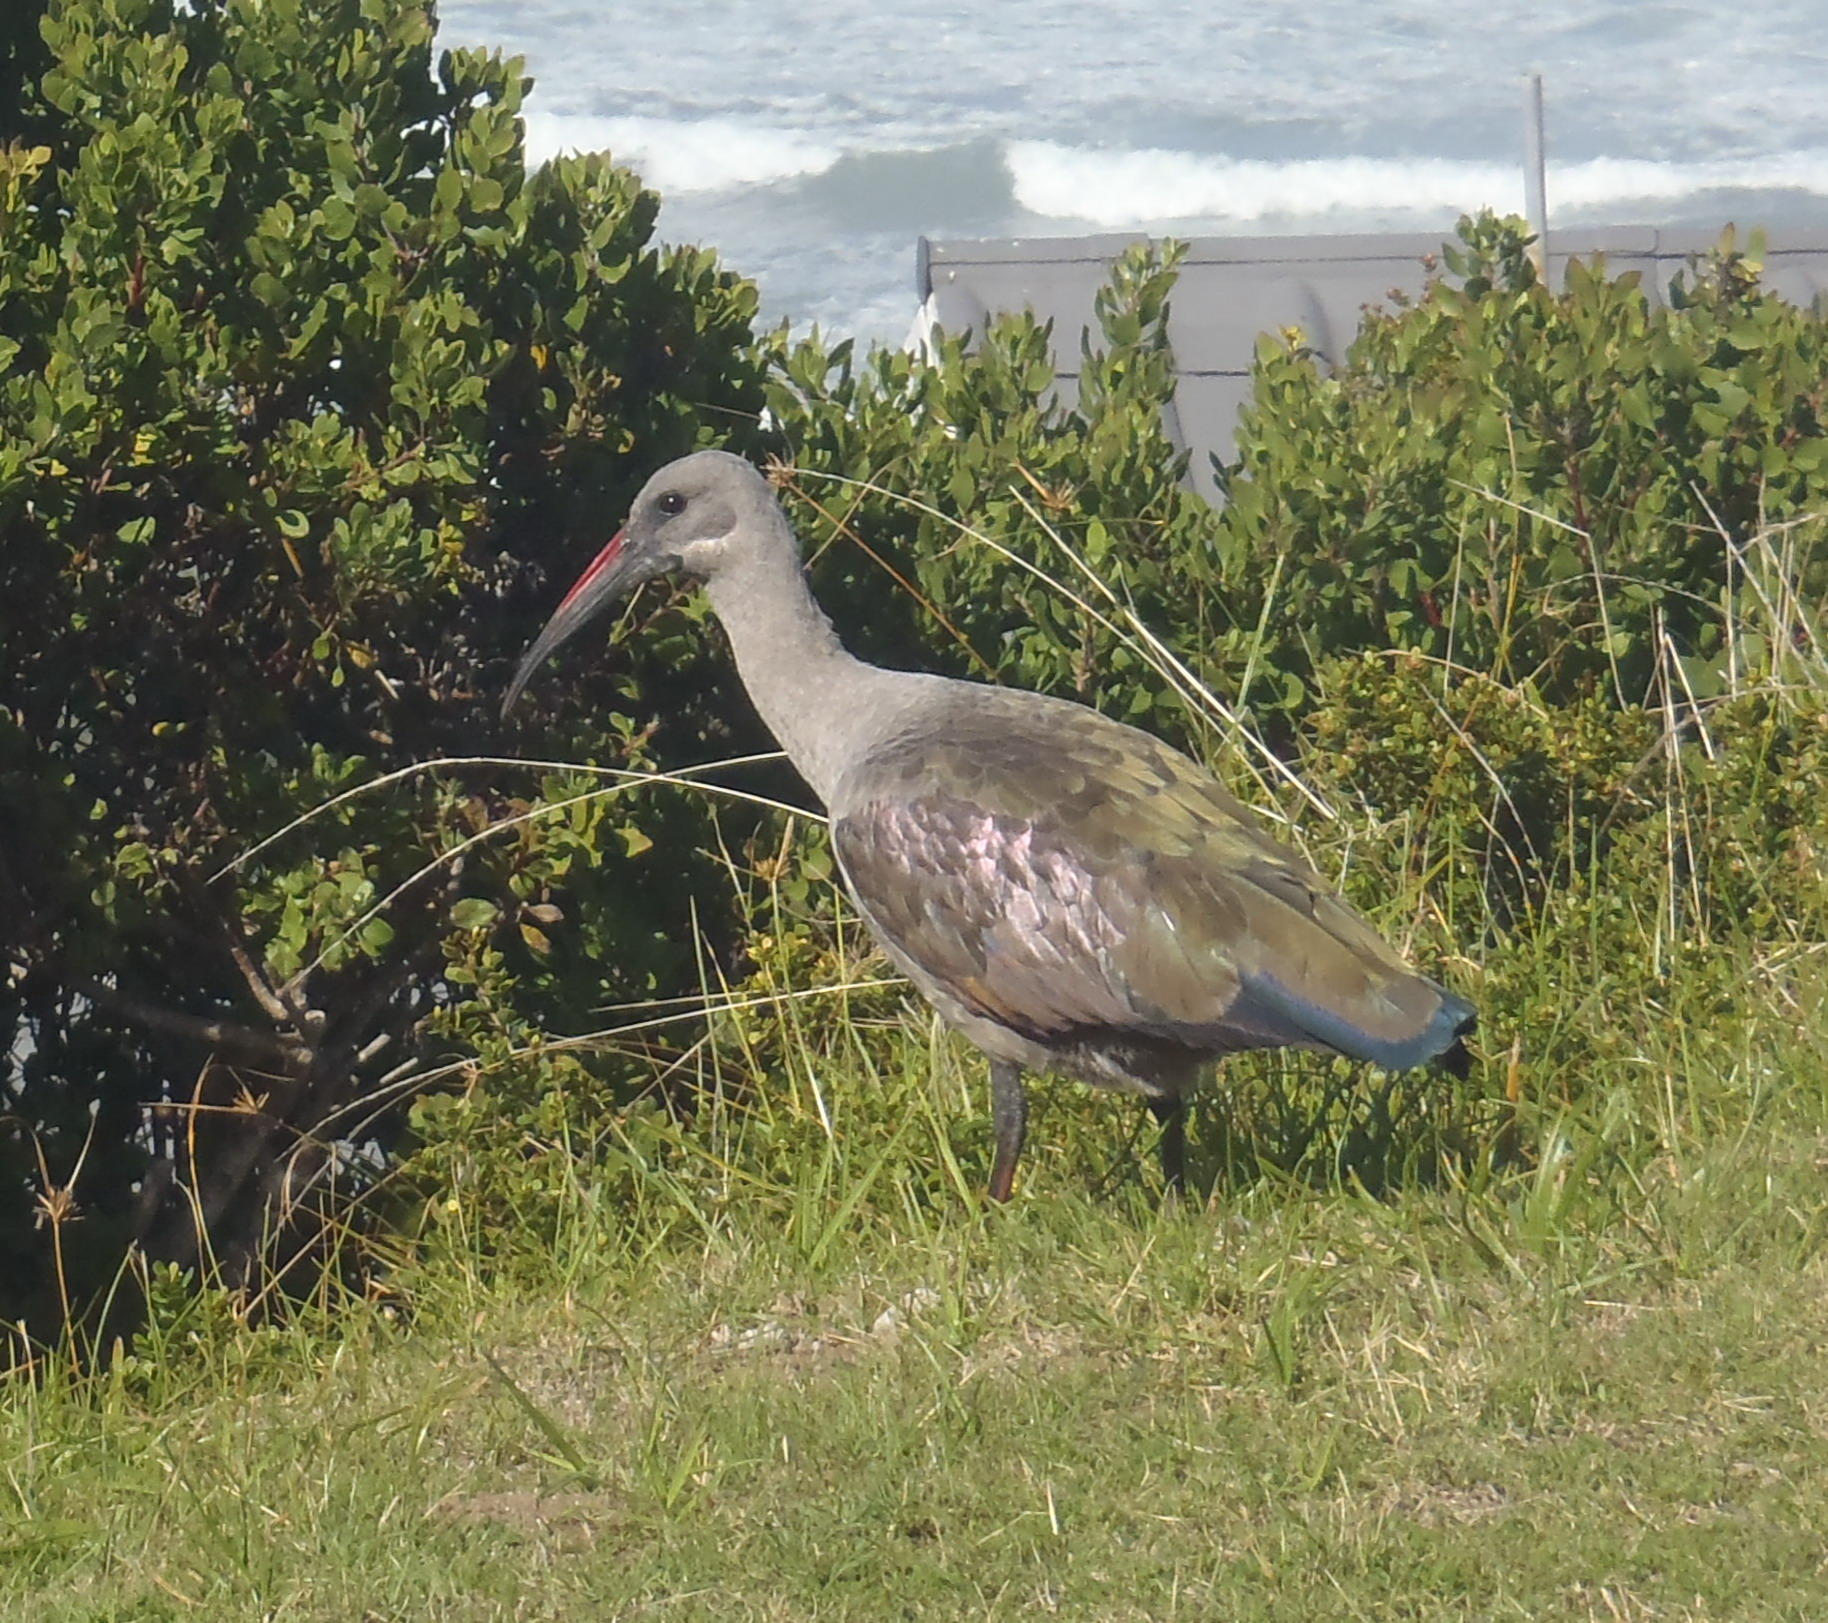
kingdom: Animalia
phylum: Chordata
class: Aves
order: Pelecaniformes
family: Threskiornithidae
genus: Bostrychia
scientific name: Bostrychia hagedash
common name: Hadada ibis
